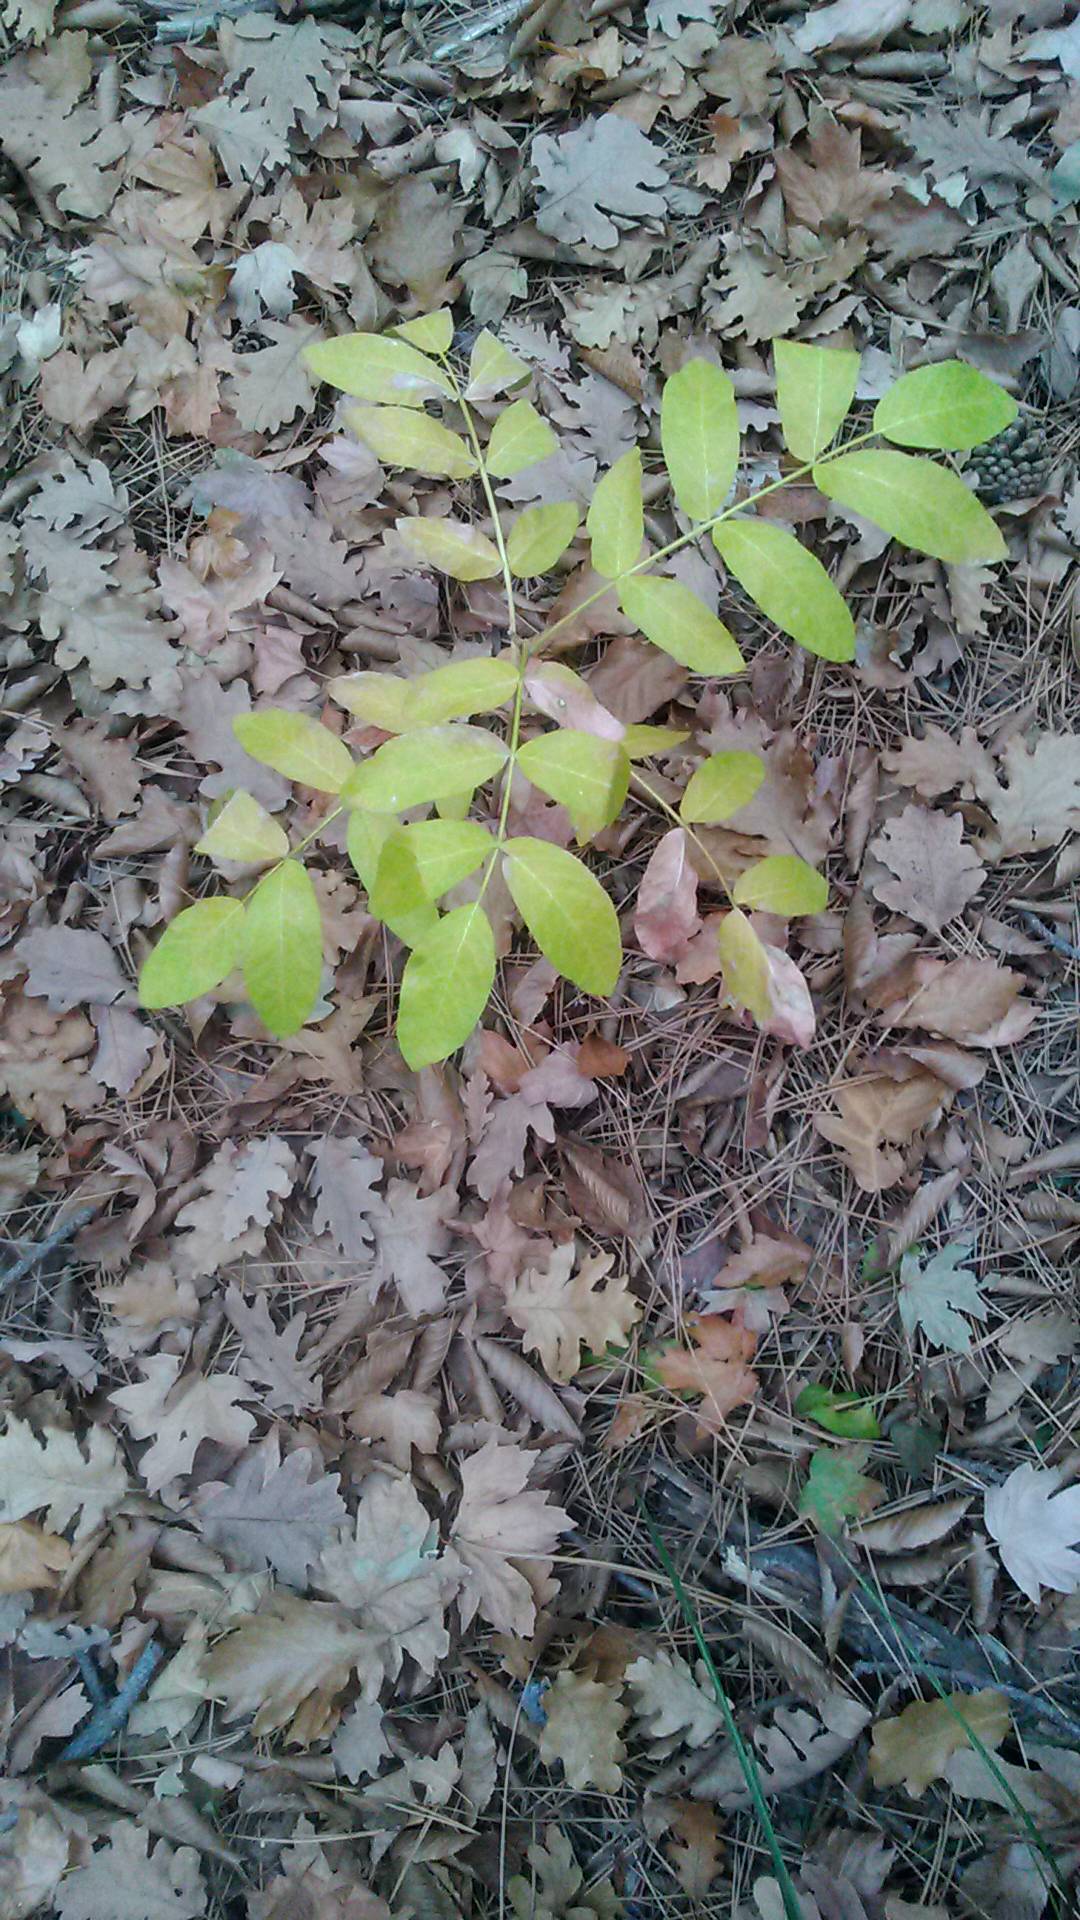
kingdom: Plantae
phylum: Tracheophyta
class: Magnoliopsida
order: Sapindales
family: Rutaceae
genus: Dictamnus
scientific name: Dictamnus albus
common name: Gasplant
